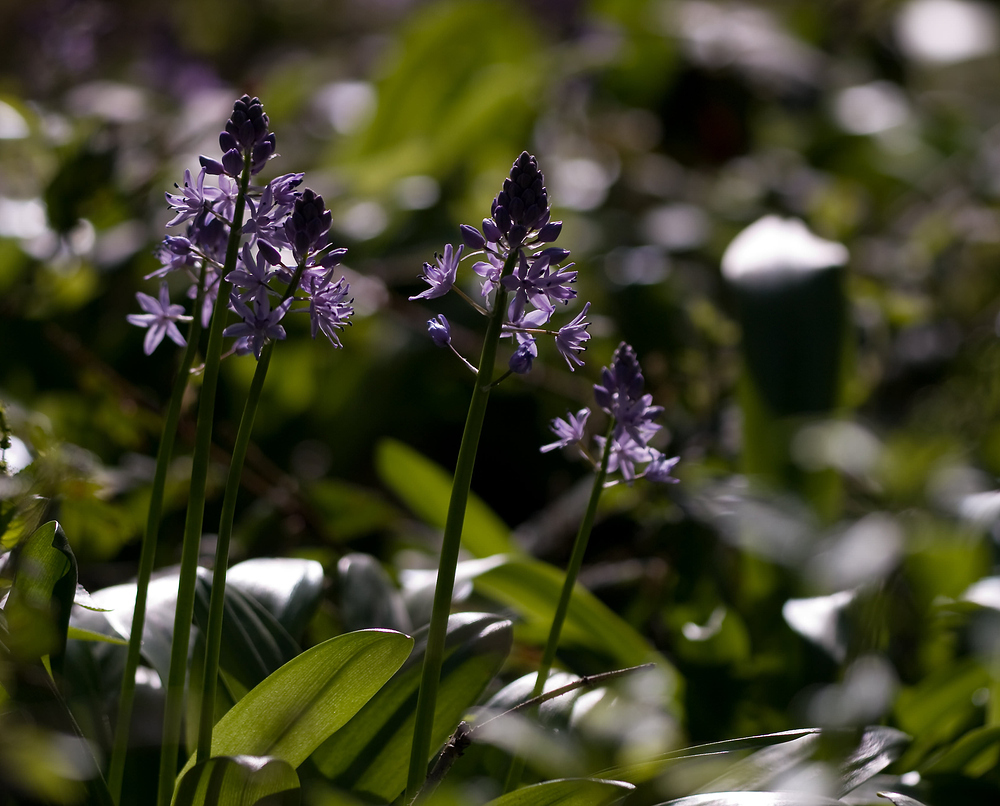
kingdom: Plantae
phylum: Tracheophyta
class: Liliopsida
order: Asparagales
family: Asparagaceae
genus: Scilla
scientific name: Scilla lilio-hyacinthus
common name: Pyrenean squill
